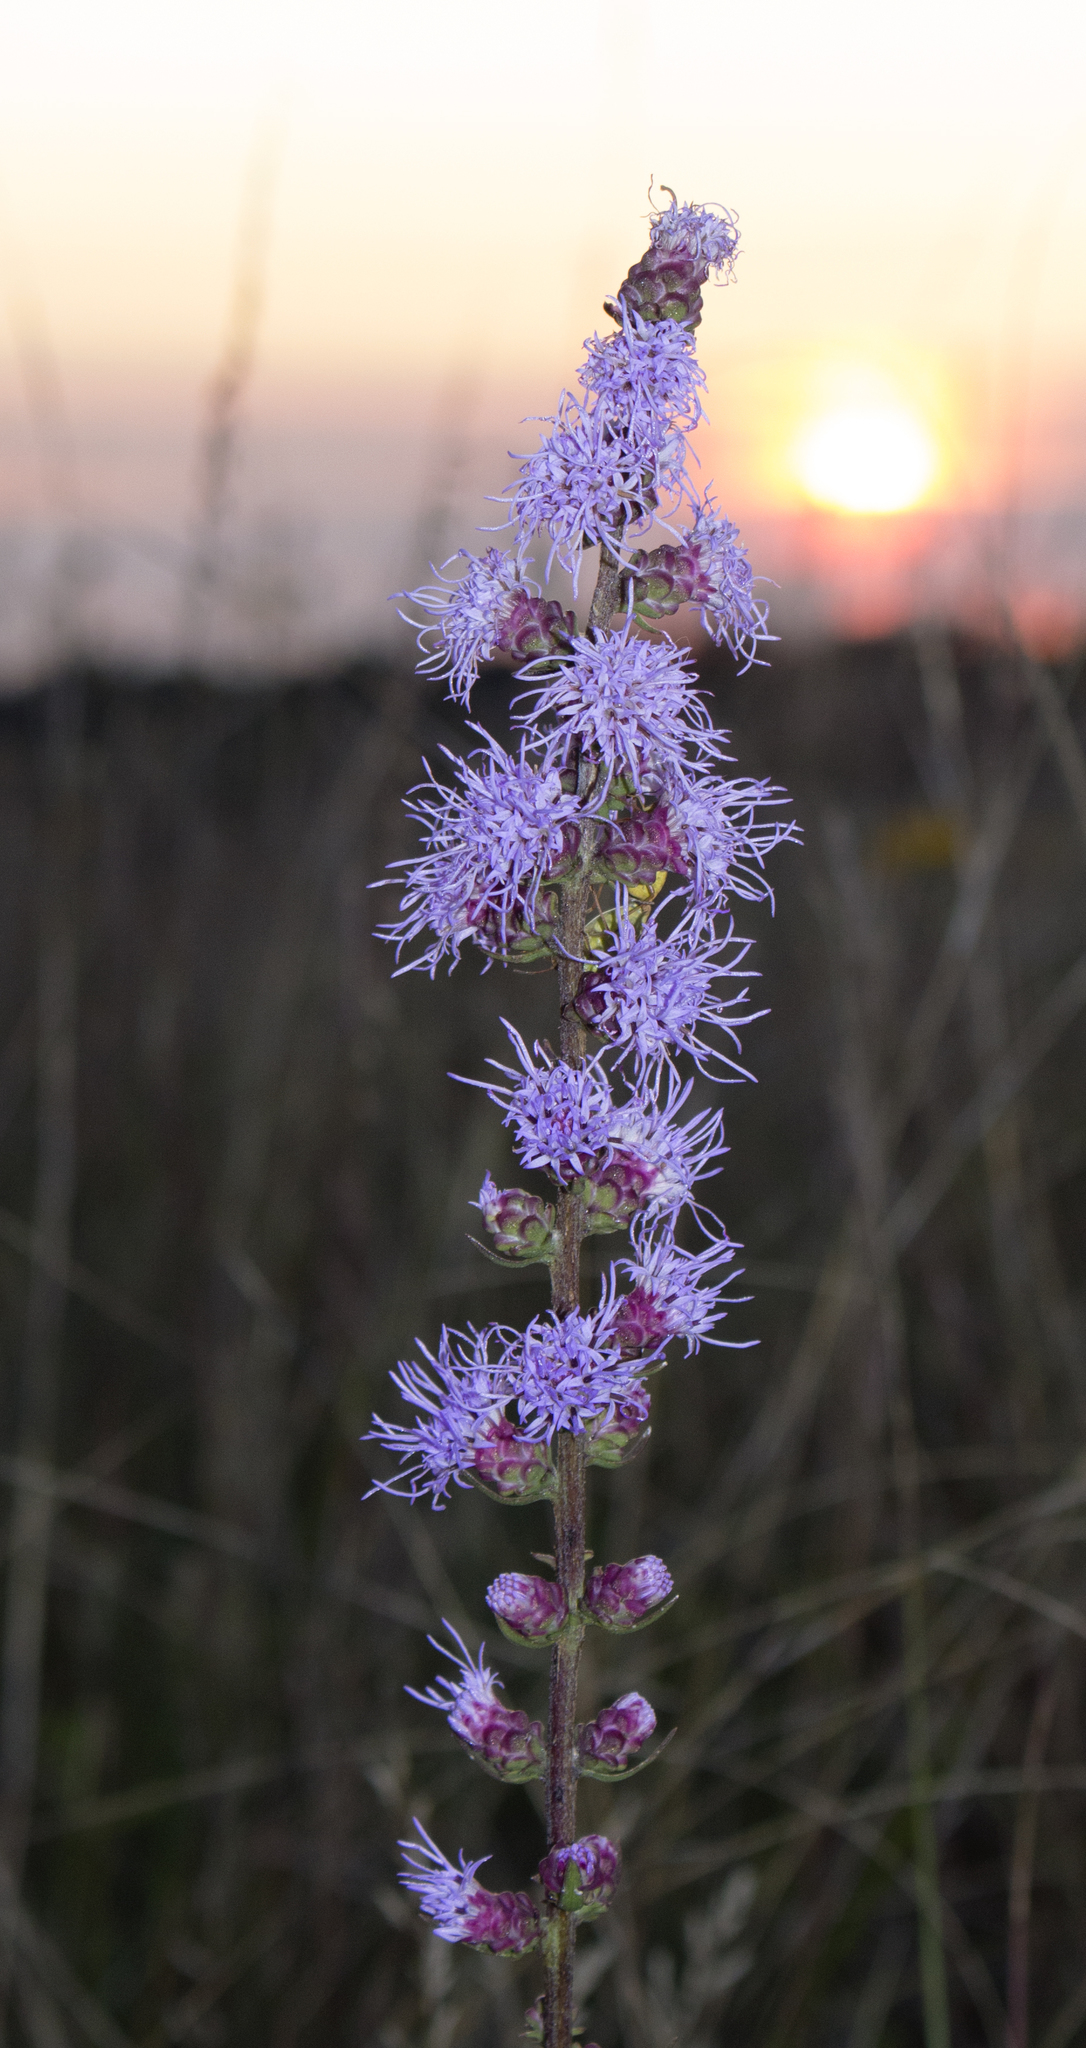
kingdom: Plantae
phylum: Tracheophyta
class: Magnoliopsida
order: Asterales
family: Asteraceae
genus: Liatris
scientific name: Liatris aspera
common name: Lacerate blazing-star
